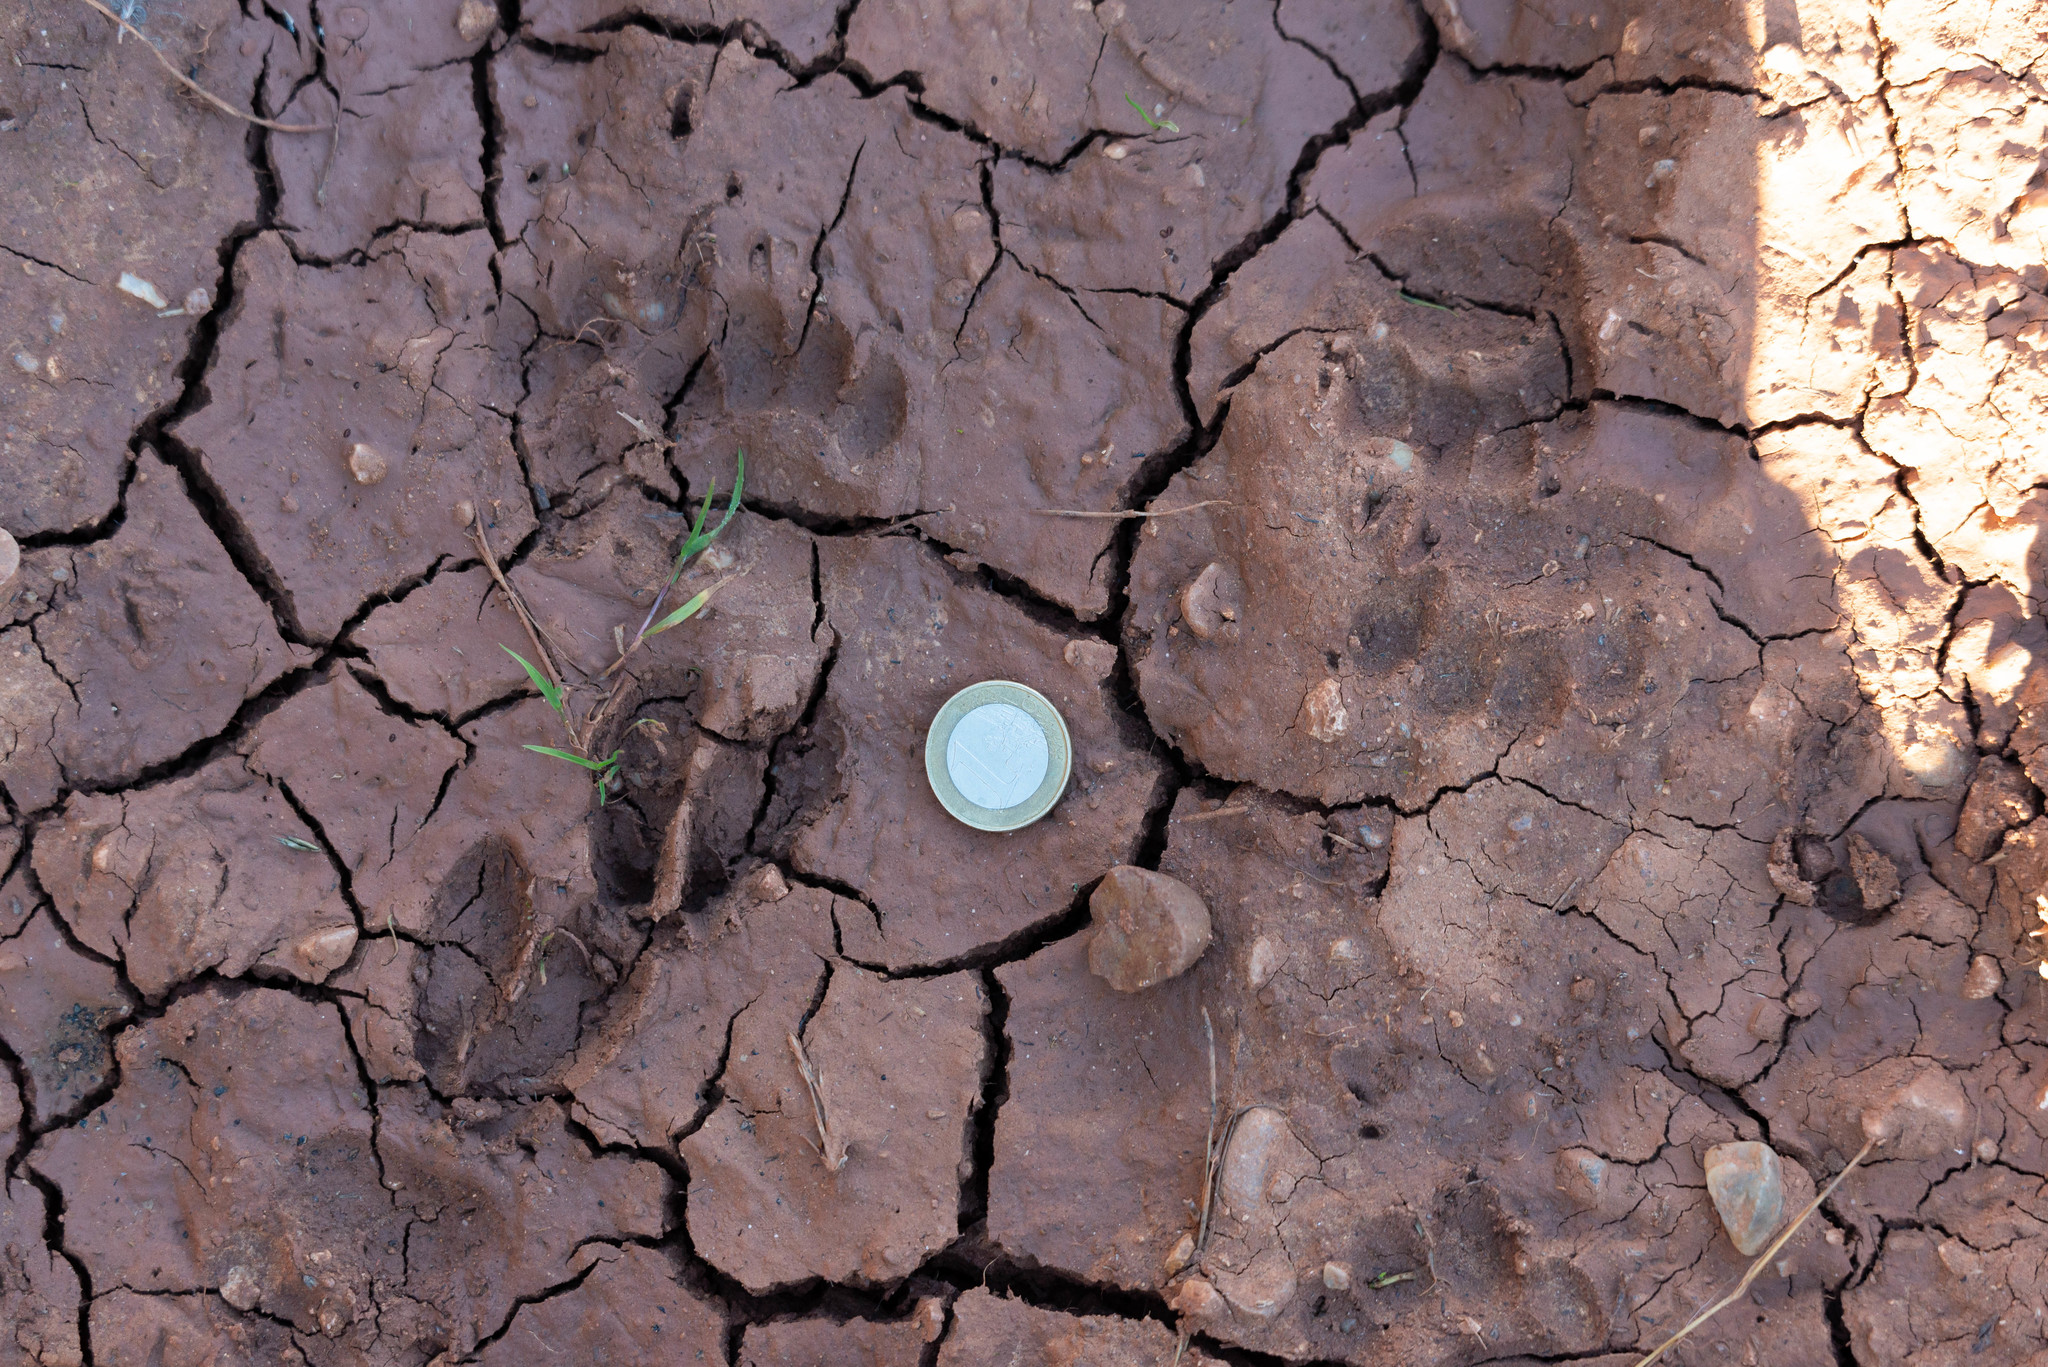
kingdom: Animalia
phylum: Chordata
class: Mammalia
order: Artiodactyla
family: Cervidae
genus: Capreolus
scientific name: Capreolus capreolus
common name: Western roe deer
